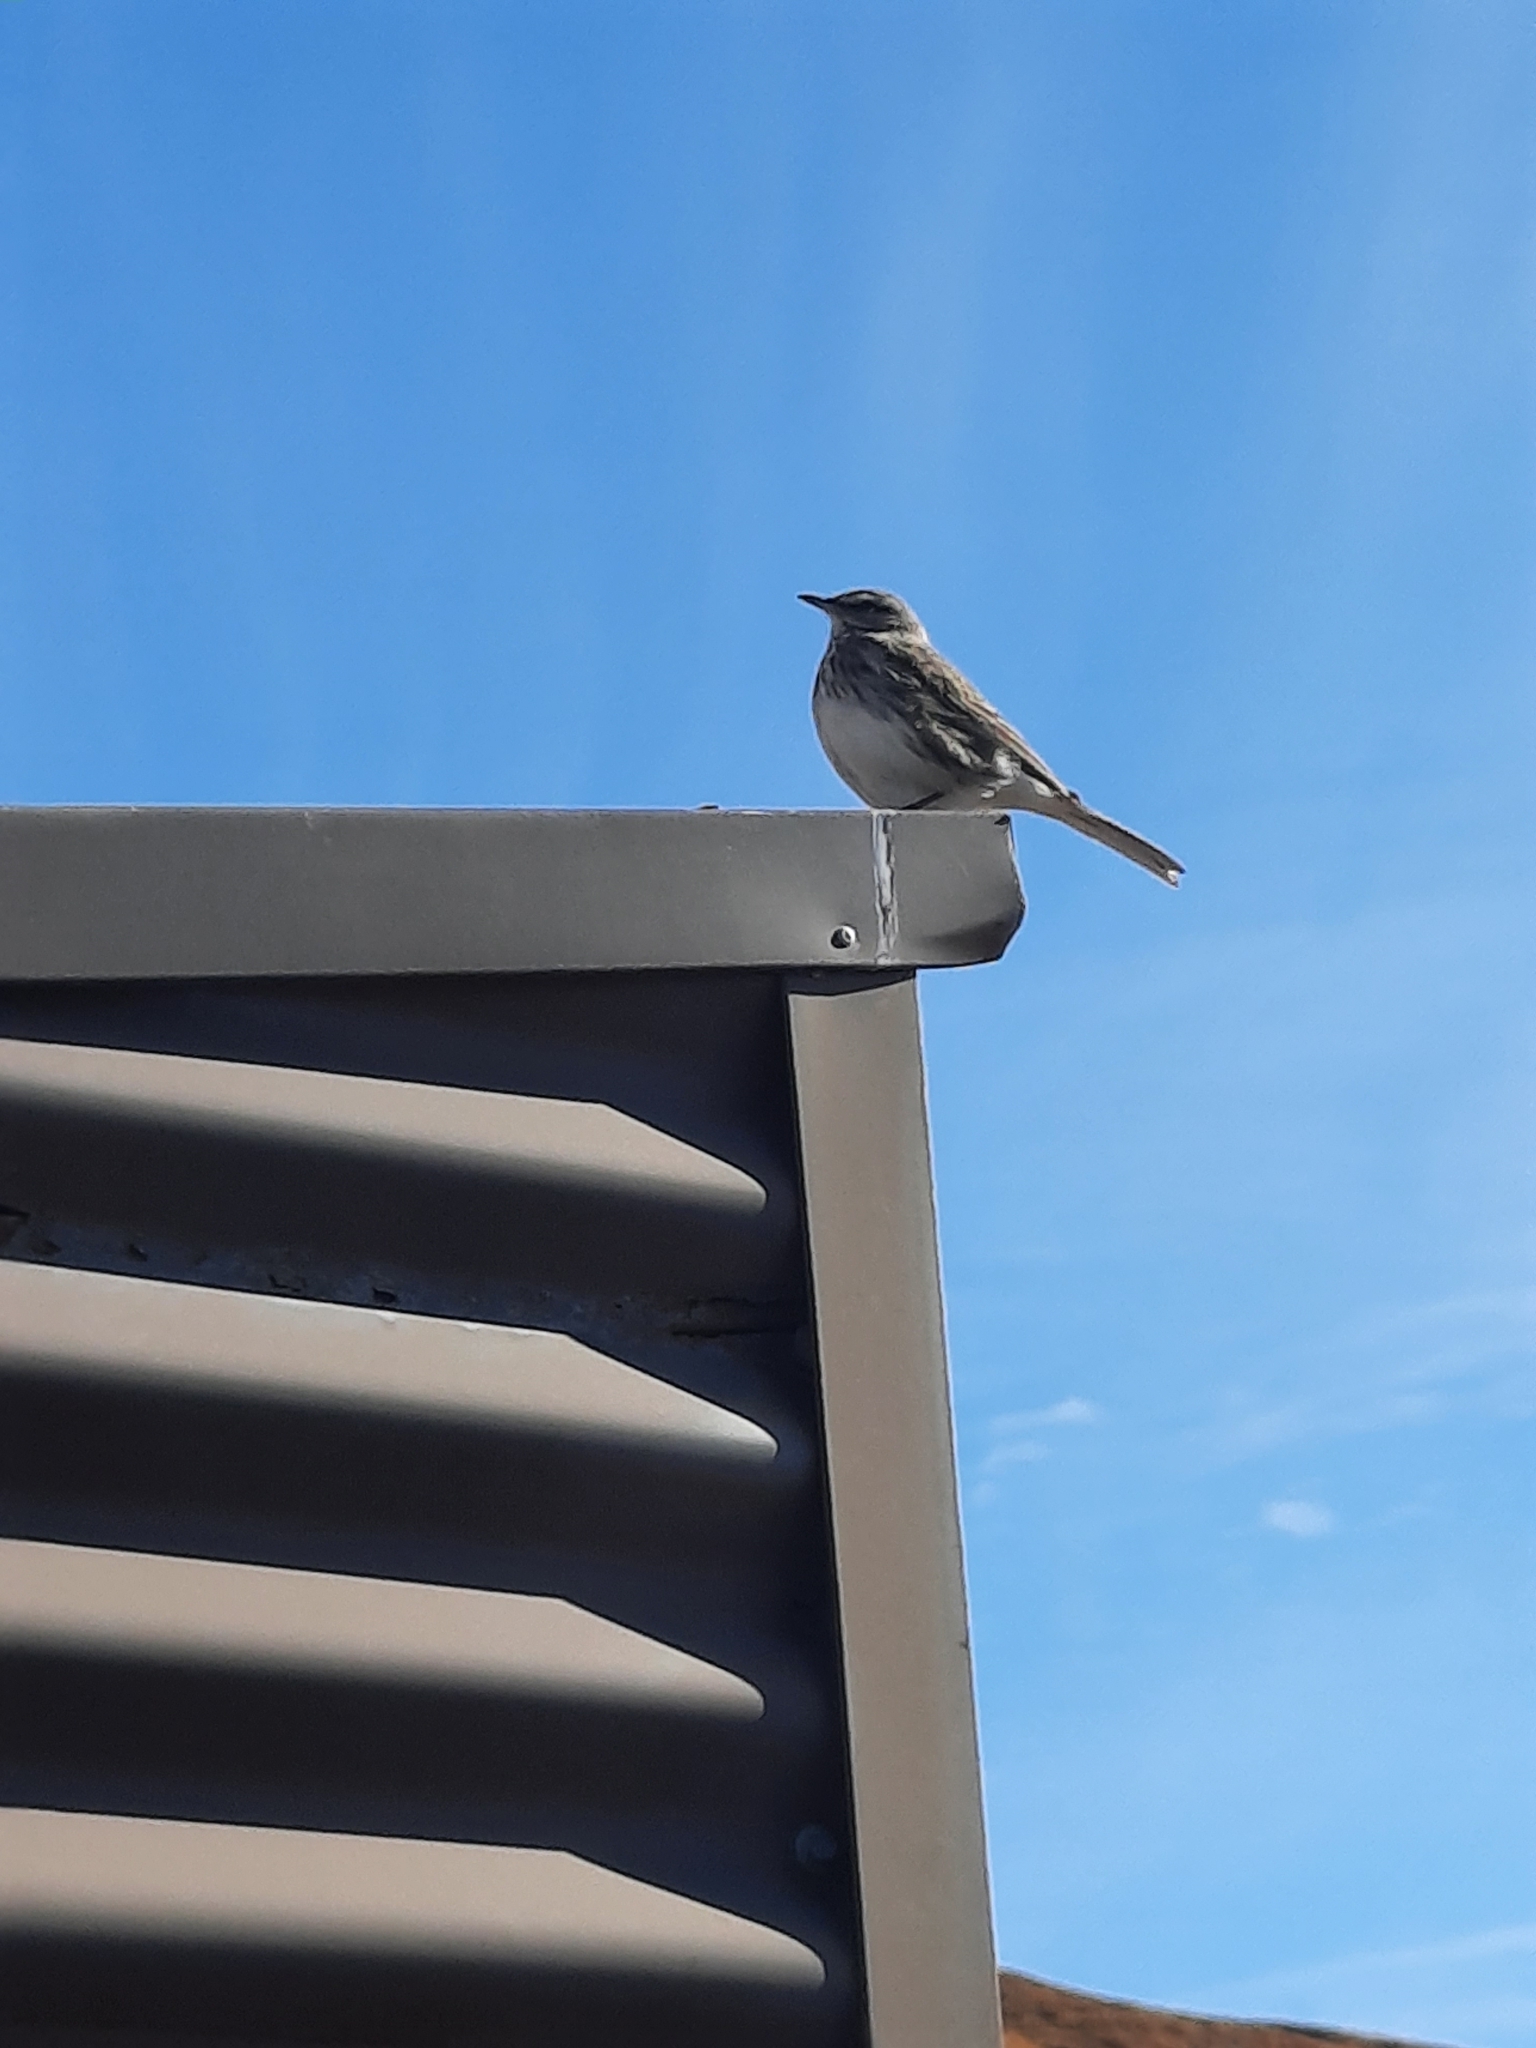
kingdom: Animalia
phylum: Chordata
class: Aves
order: Passeriformes
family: Motacillidae
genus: Anthus
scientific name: Anthus novaeseelandiae
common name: New zealand pipit
